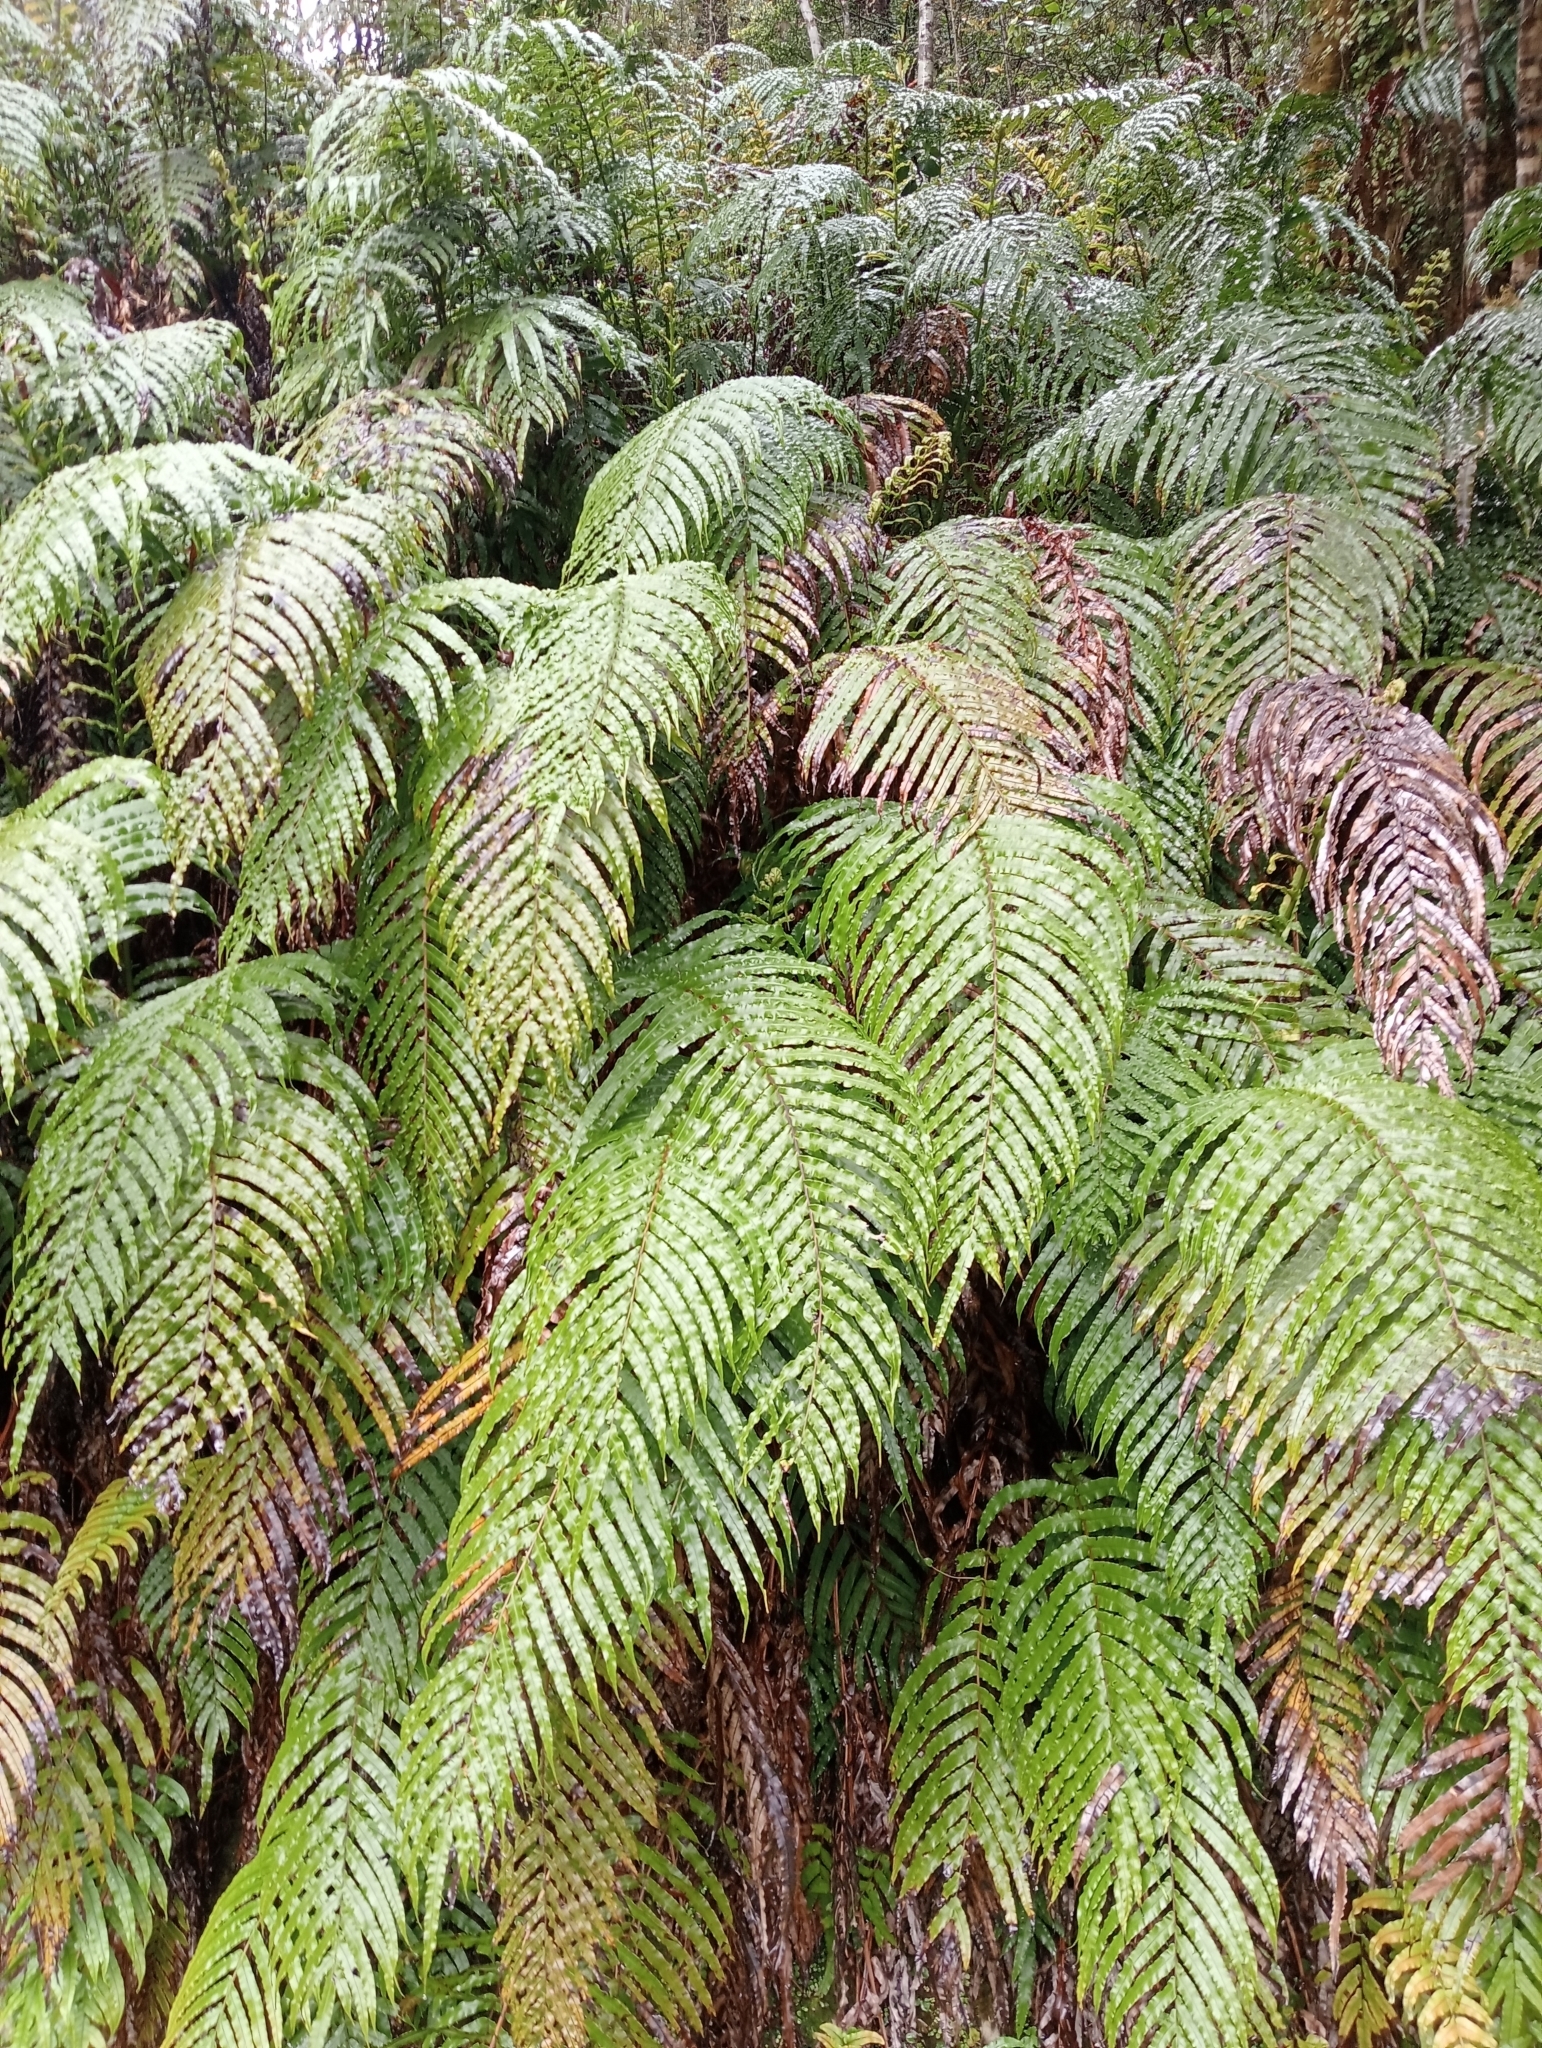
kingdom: Plantae
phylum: Tracheophyta
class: Polypodiopsida
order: Polypodiales
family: Blechnaceae
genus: Parablechnum
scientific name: Parablechnum novae-zelandiae
